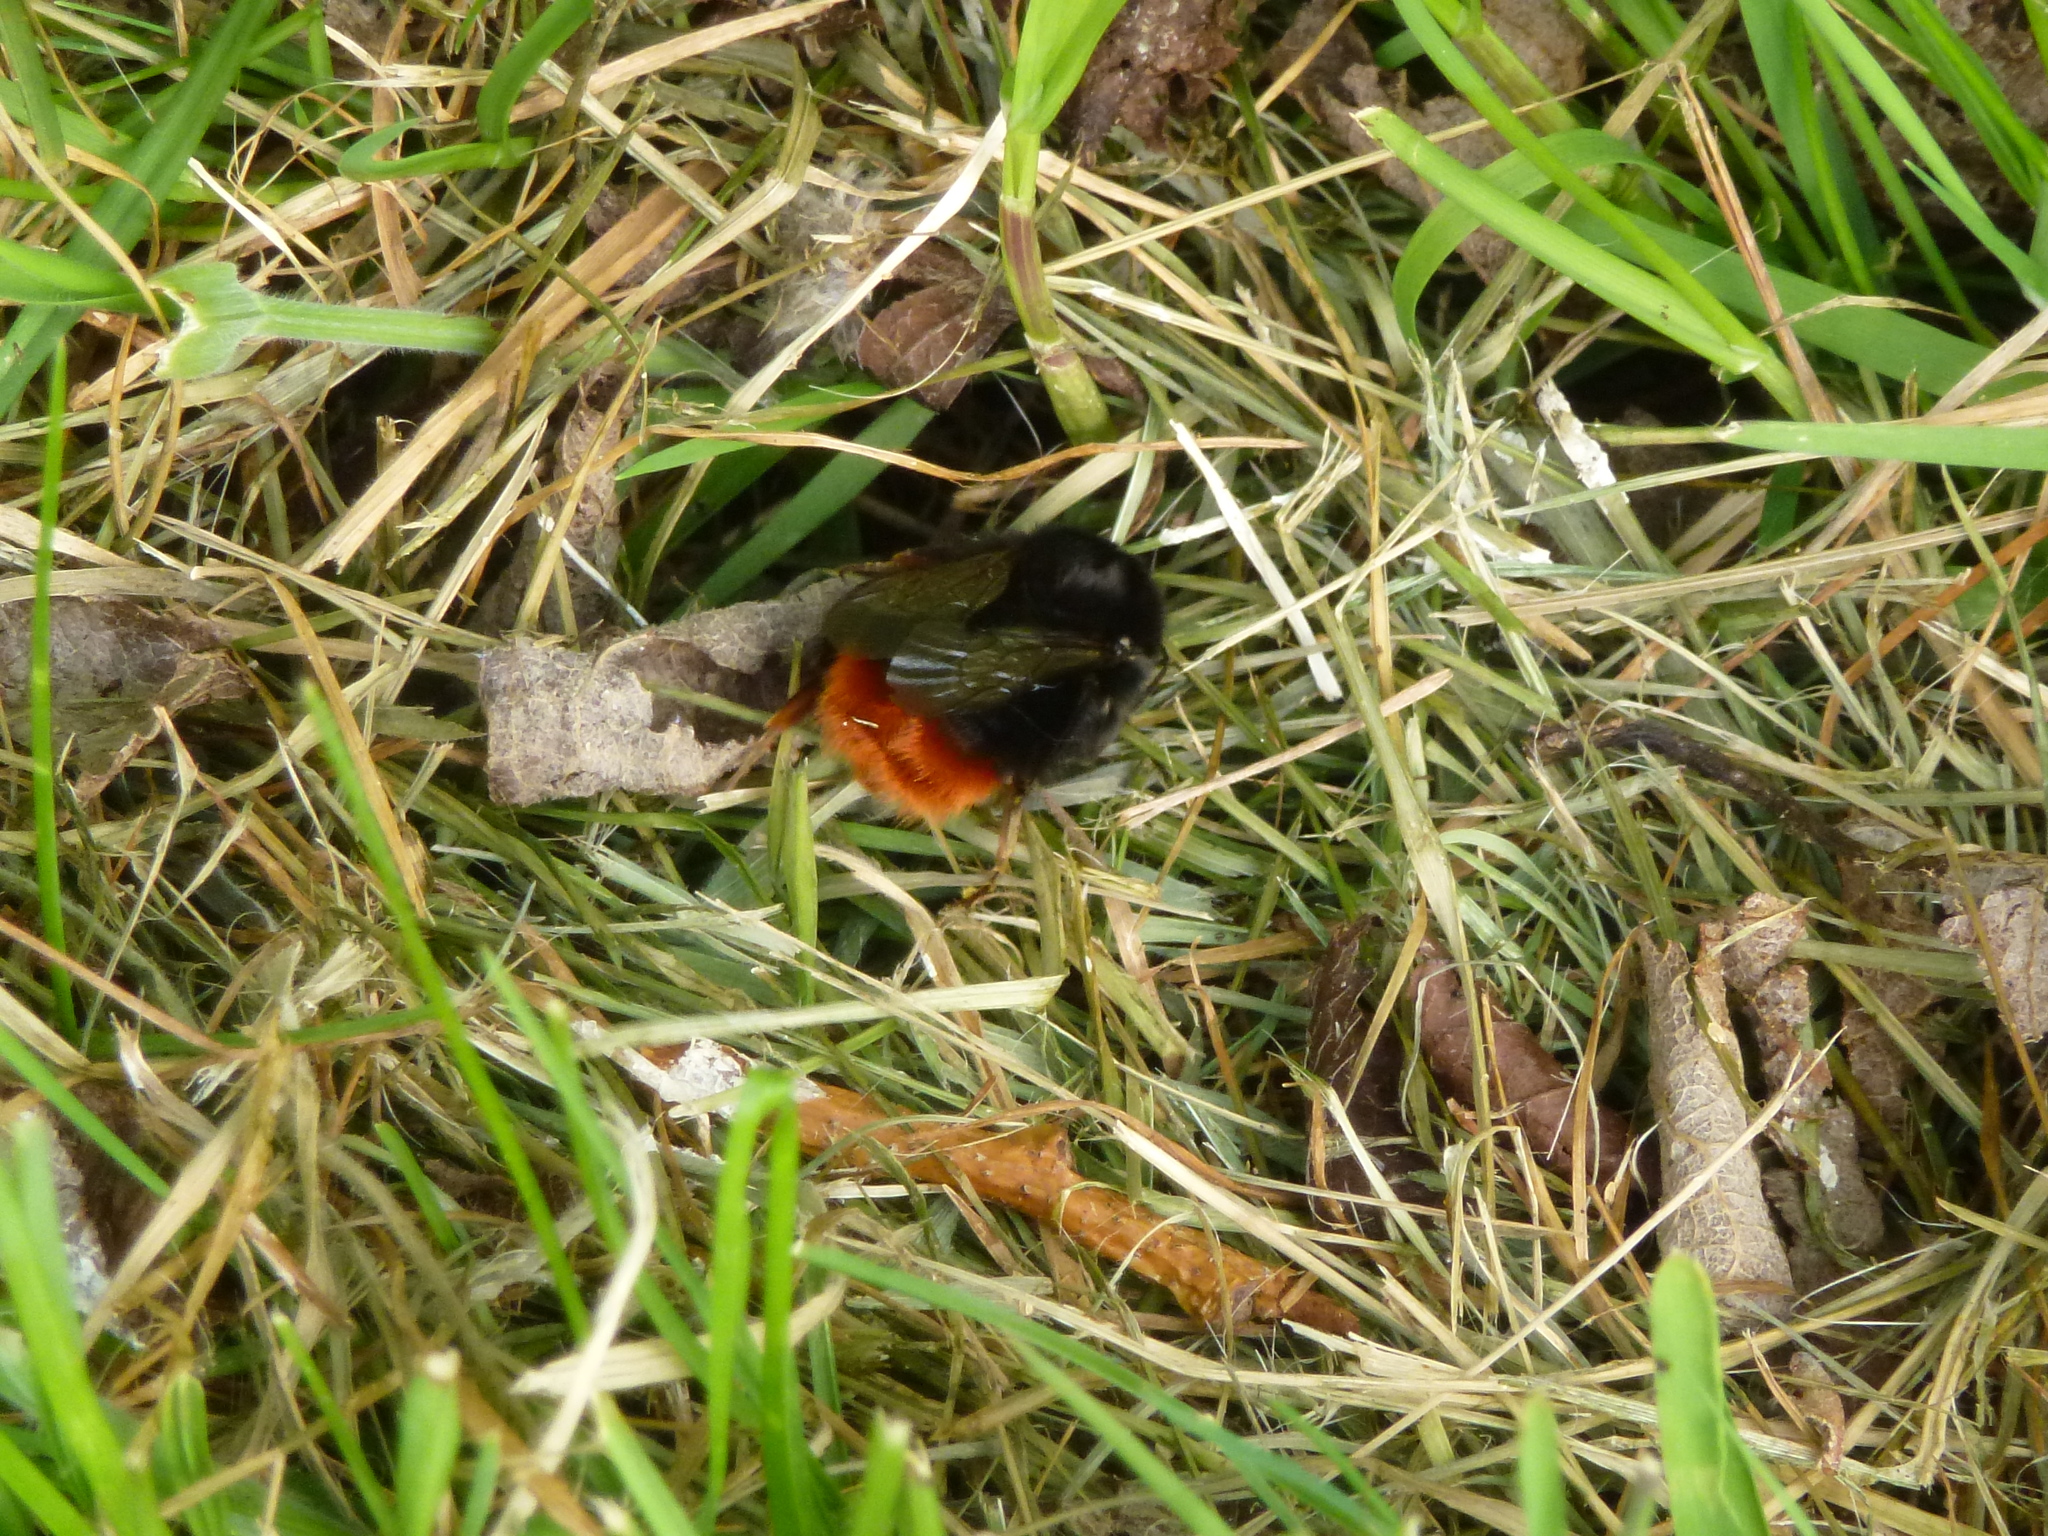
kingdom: Animalia
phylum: Arthropoda
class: Insecta
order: Hymenoptera
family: Apidae
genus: Bombus
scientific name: Bombus lapidarius
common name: Large red-tailed humble-bee
